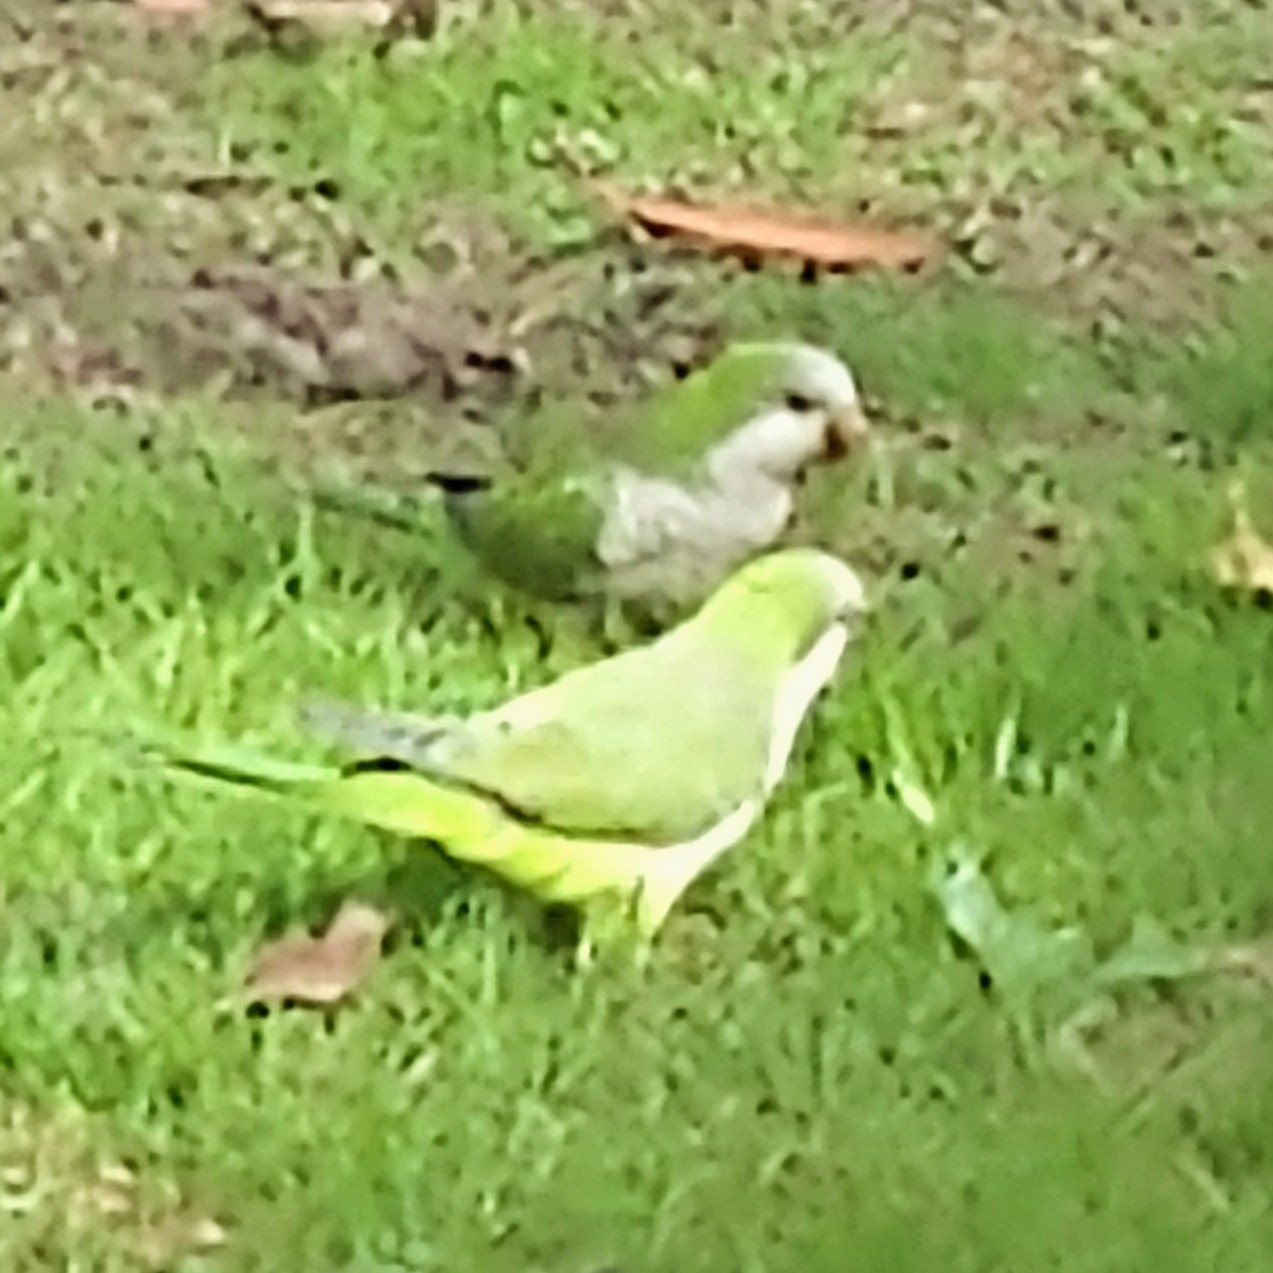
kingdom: Animalia
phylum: Chordata
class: Aves
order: Psittaciformes
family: Psittacidae
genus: Myiopsitta
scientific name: Myiopsitta monachus
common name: Monk parakeet
